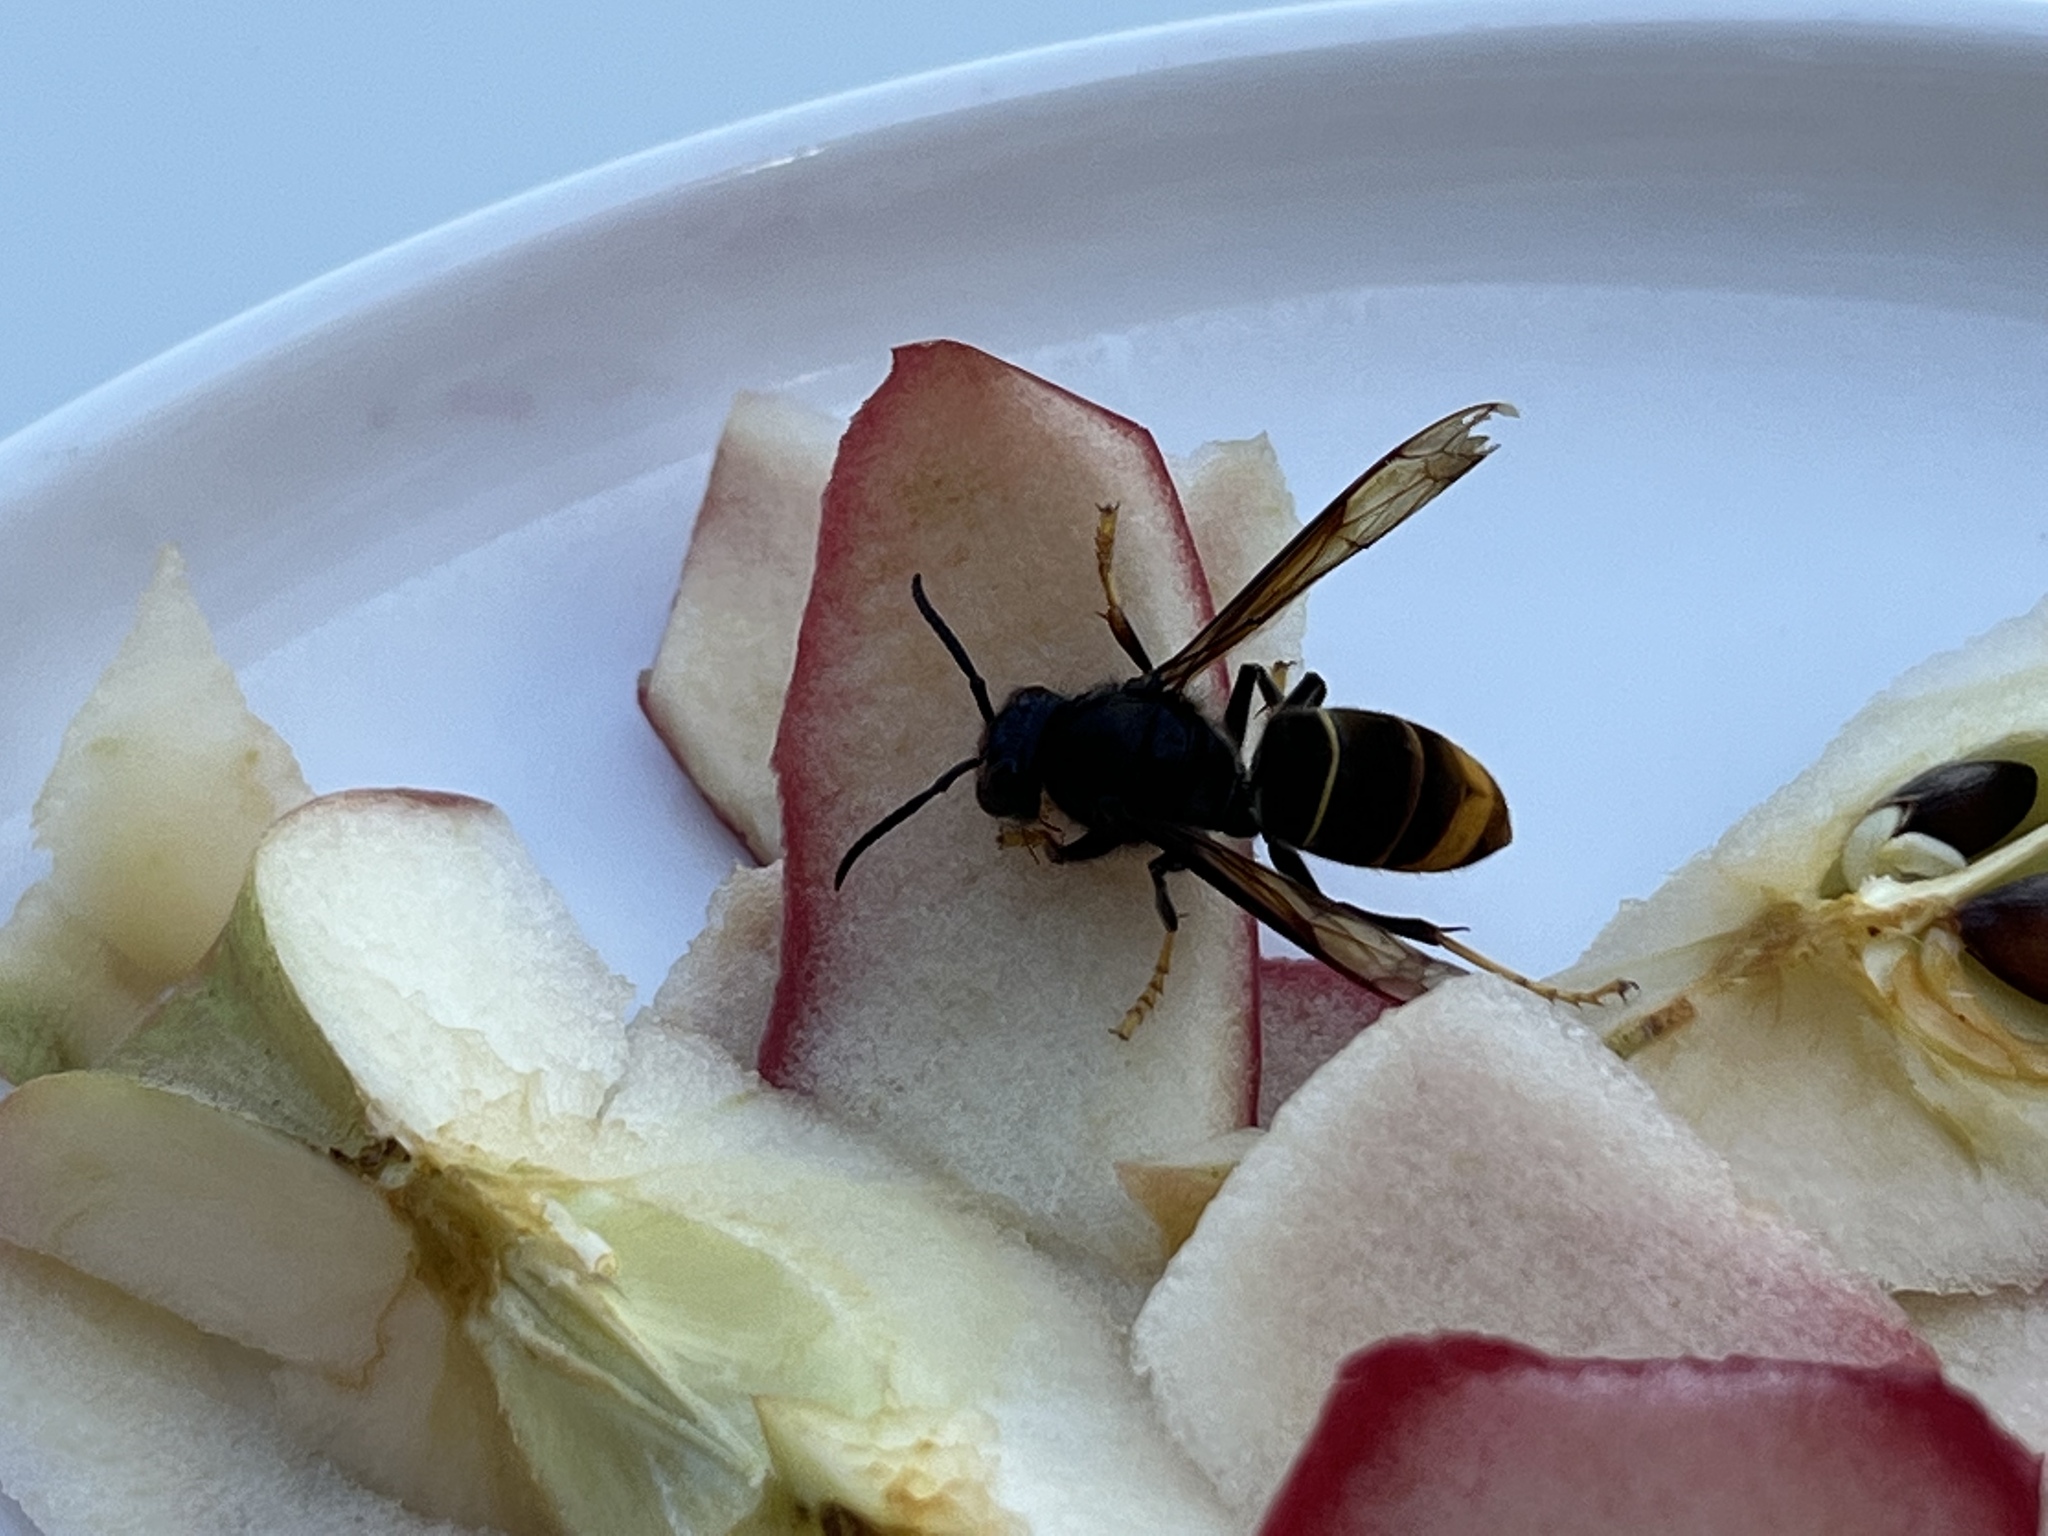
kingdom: Animalia
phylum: Arthropoda
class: Insecta
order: Hymenoptera
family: Vespidae
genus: Vespa
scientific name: Vespa velutina
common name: Asian hornet
